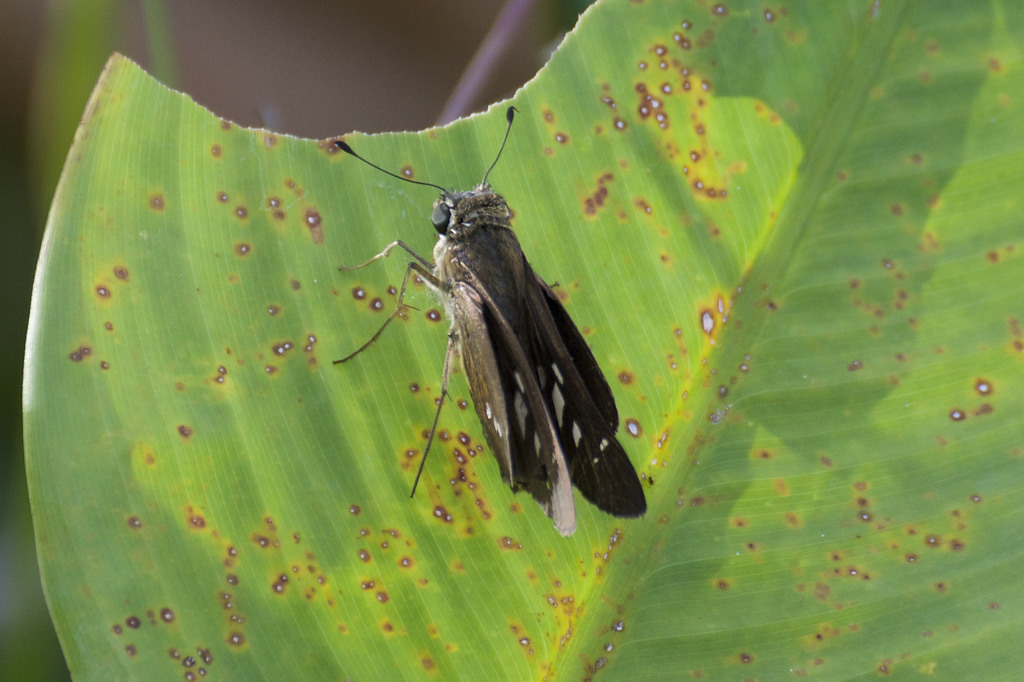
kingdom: Animalia
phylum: Arthropoda
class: Insecta
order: Lepidoptera
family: Hesperiidae
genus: Calpodes
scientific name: Calpodes ethlius
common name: Brazilian skipper
